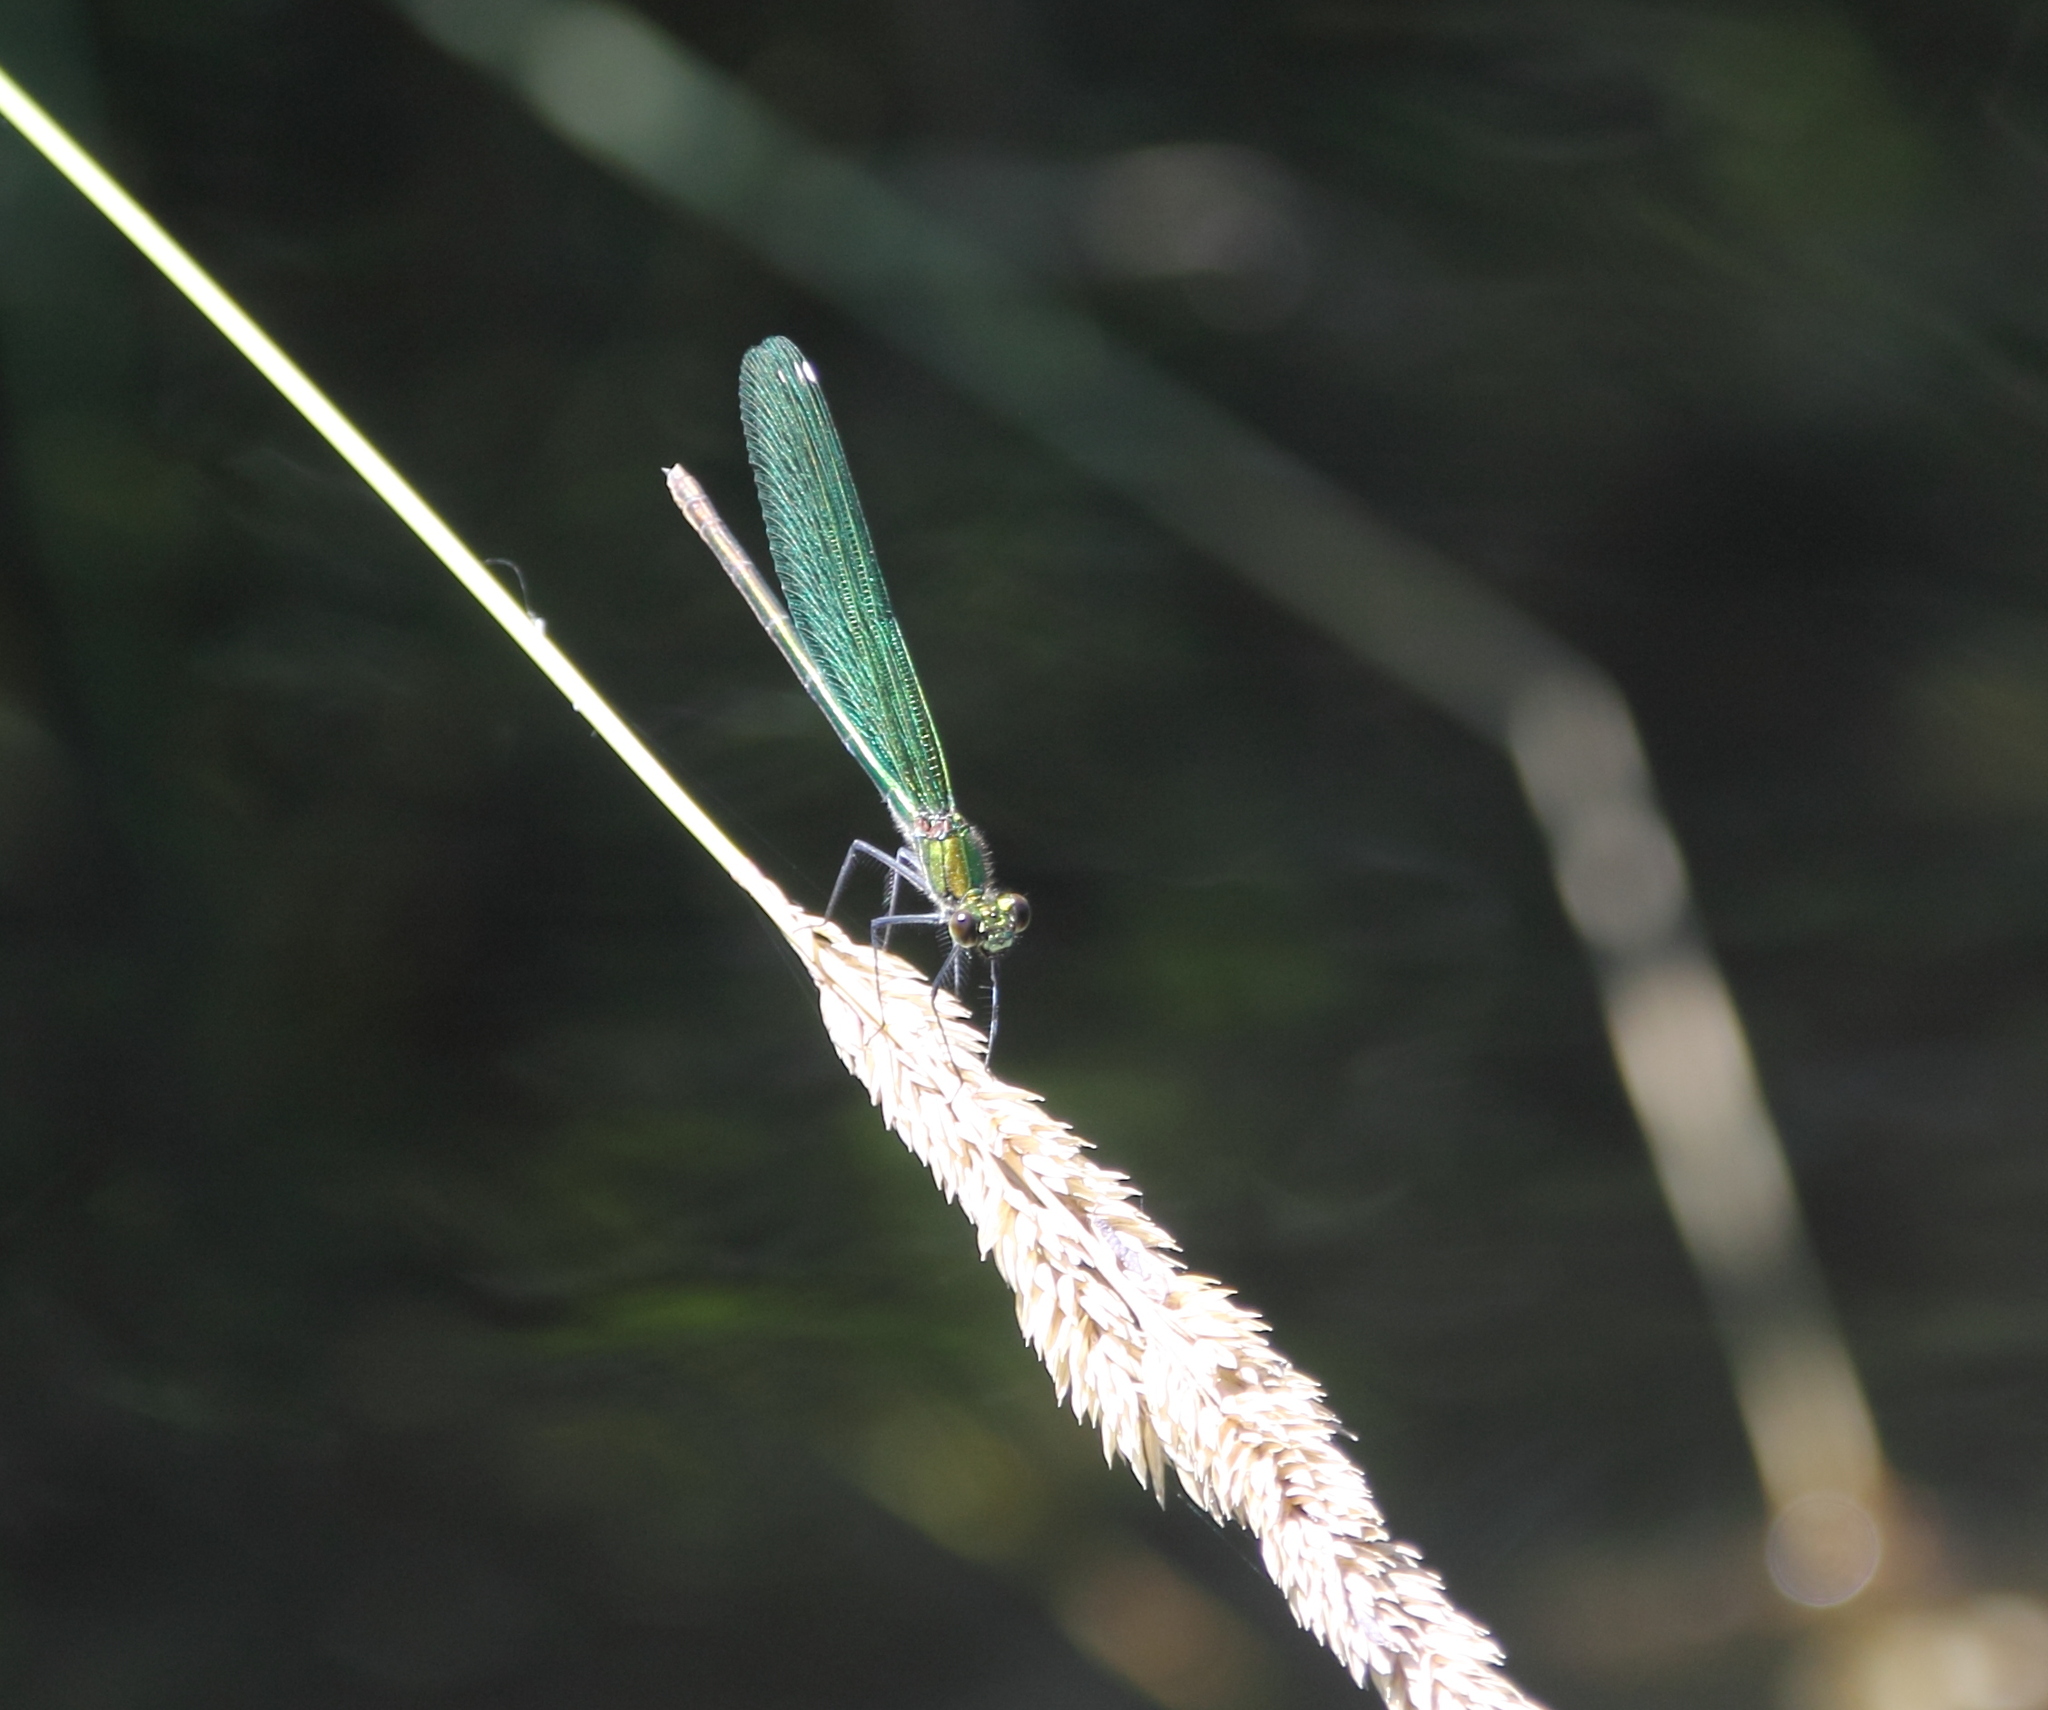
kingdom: Animalia
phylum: Arthropoda
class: Insecta
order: Odonata
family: Calopterygidae
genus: Calopteryx
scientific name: Calopteryx splendens
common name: Banded demoiselle
